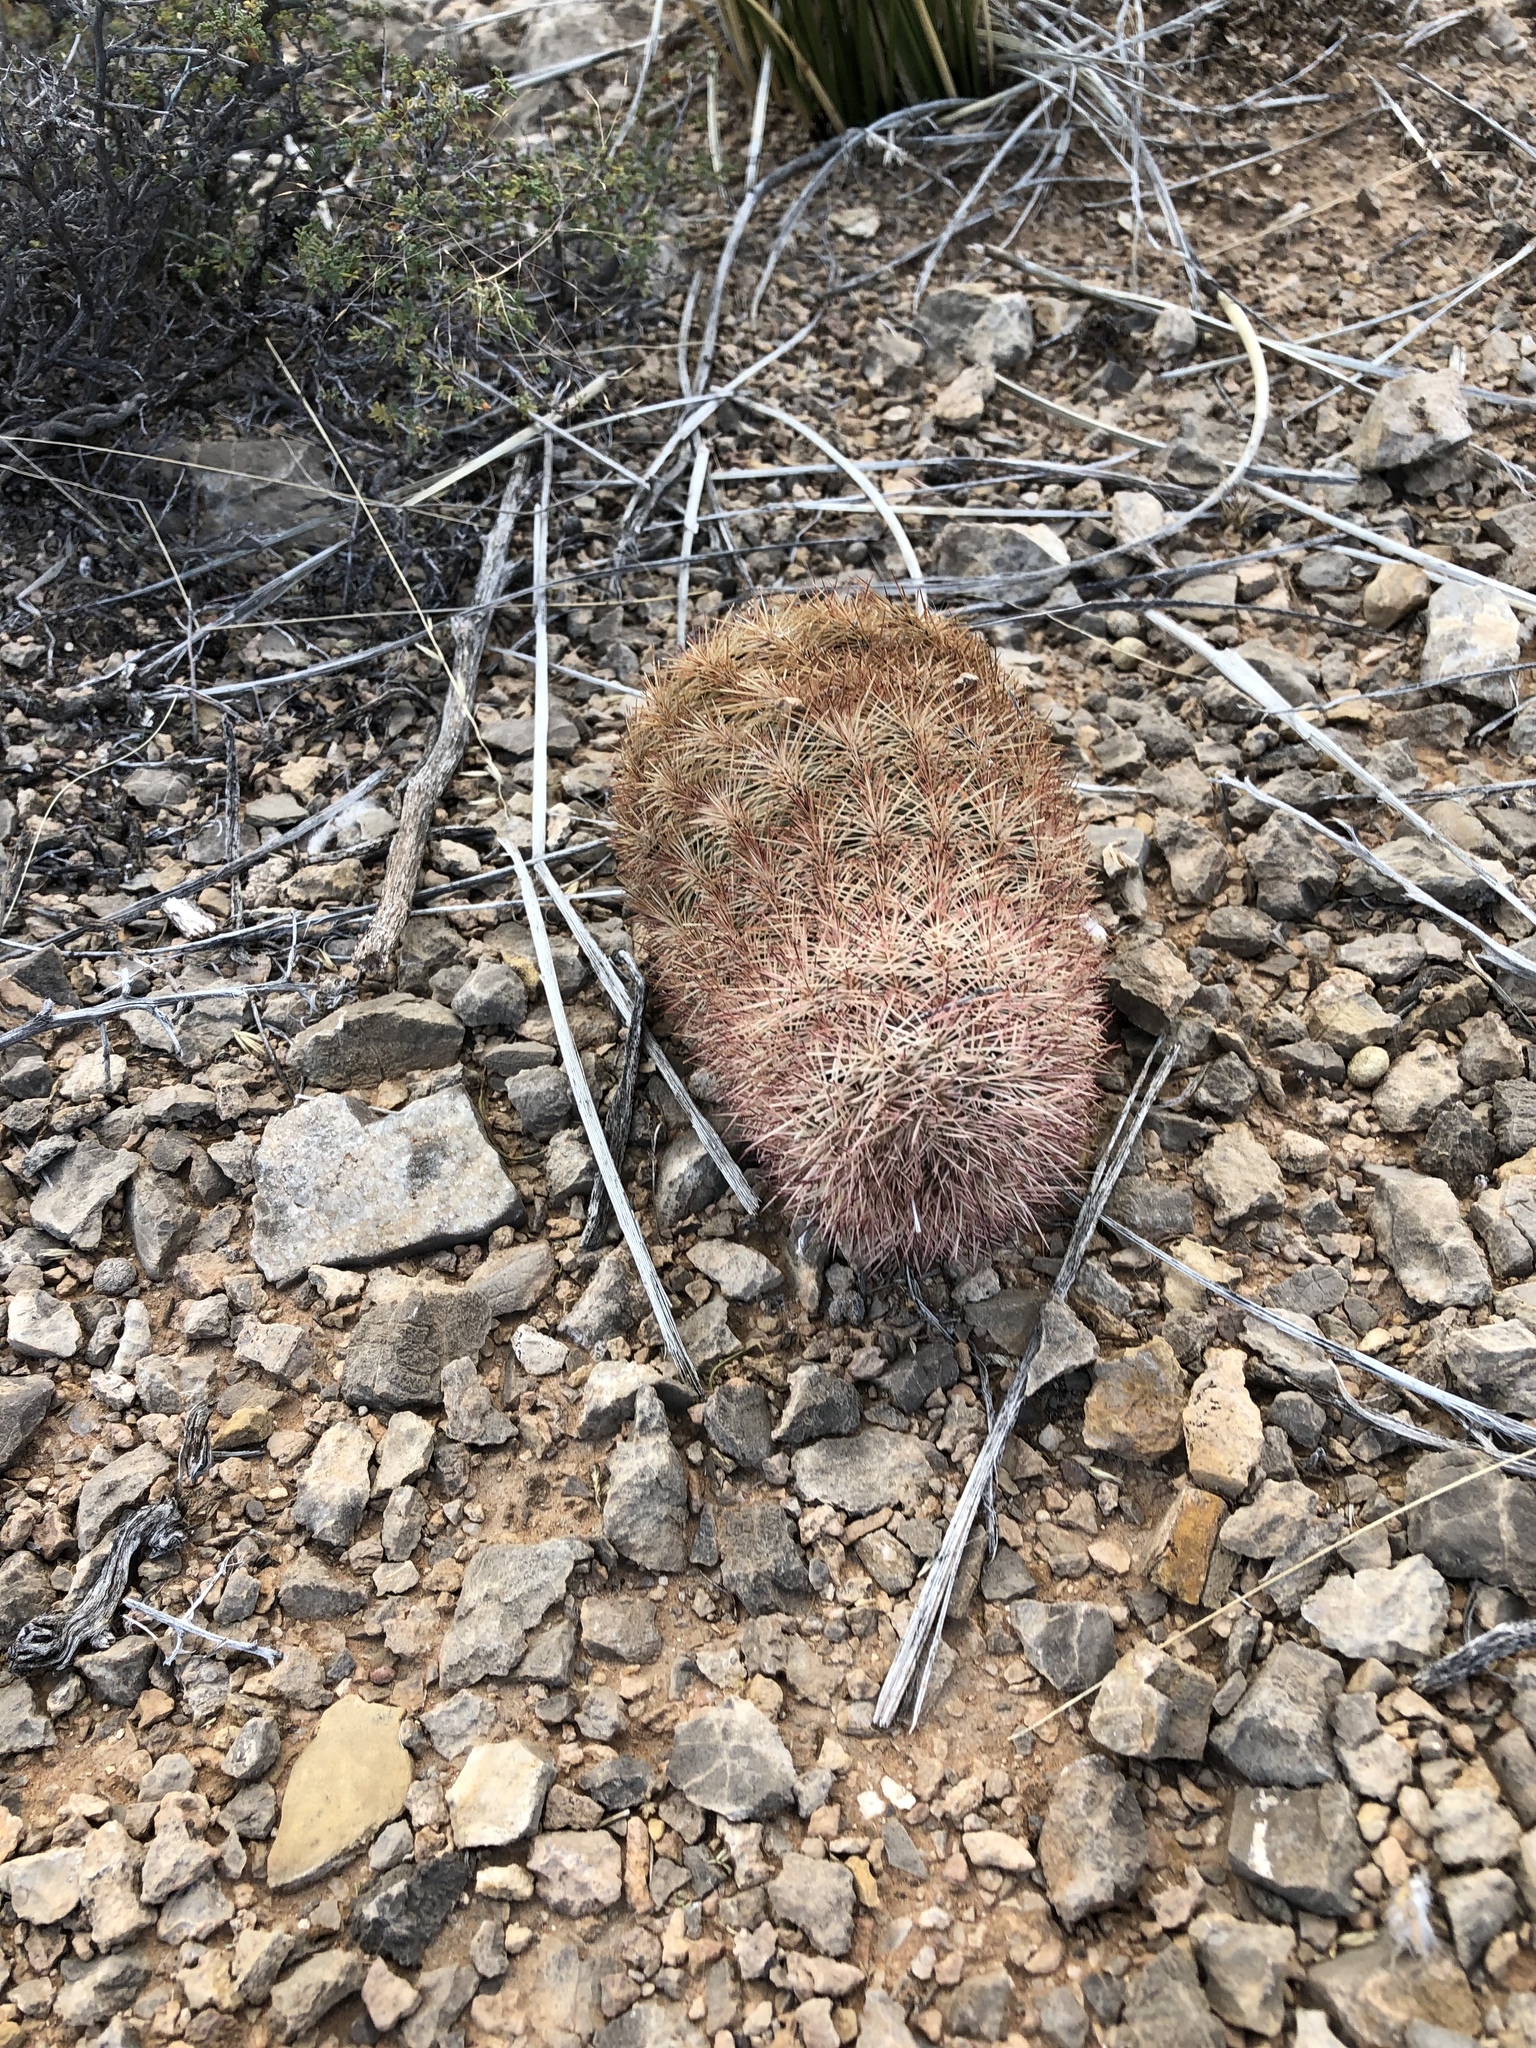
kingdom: Plantae
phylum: Tracheophyta
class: Magnoliopsida
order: Caryophyllales
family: Cactaceae
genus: Echinocereus
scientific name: Echinocereus dasyacanthus
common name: Spiny hedgehog cactus
